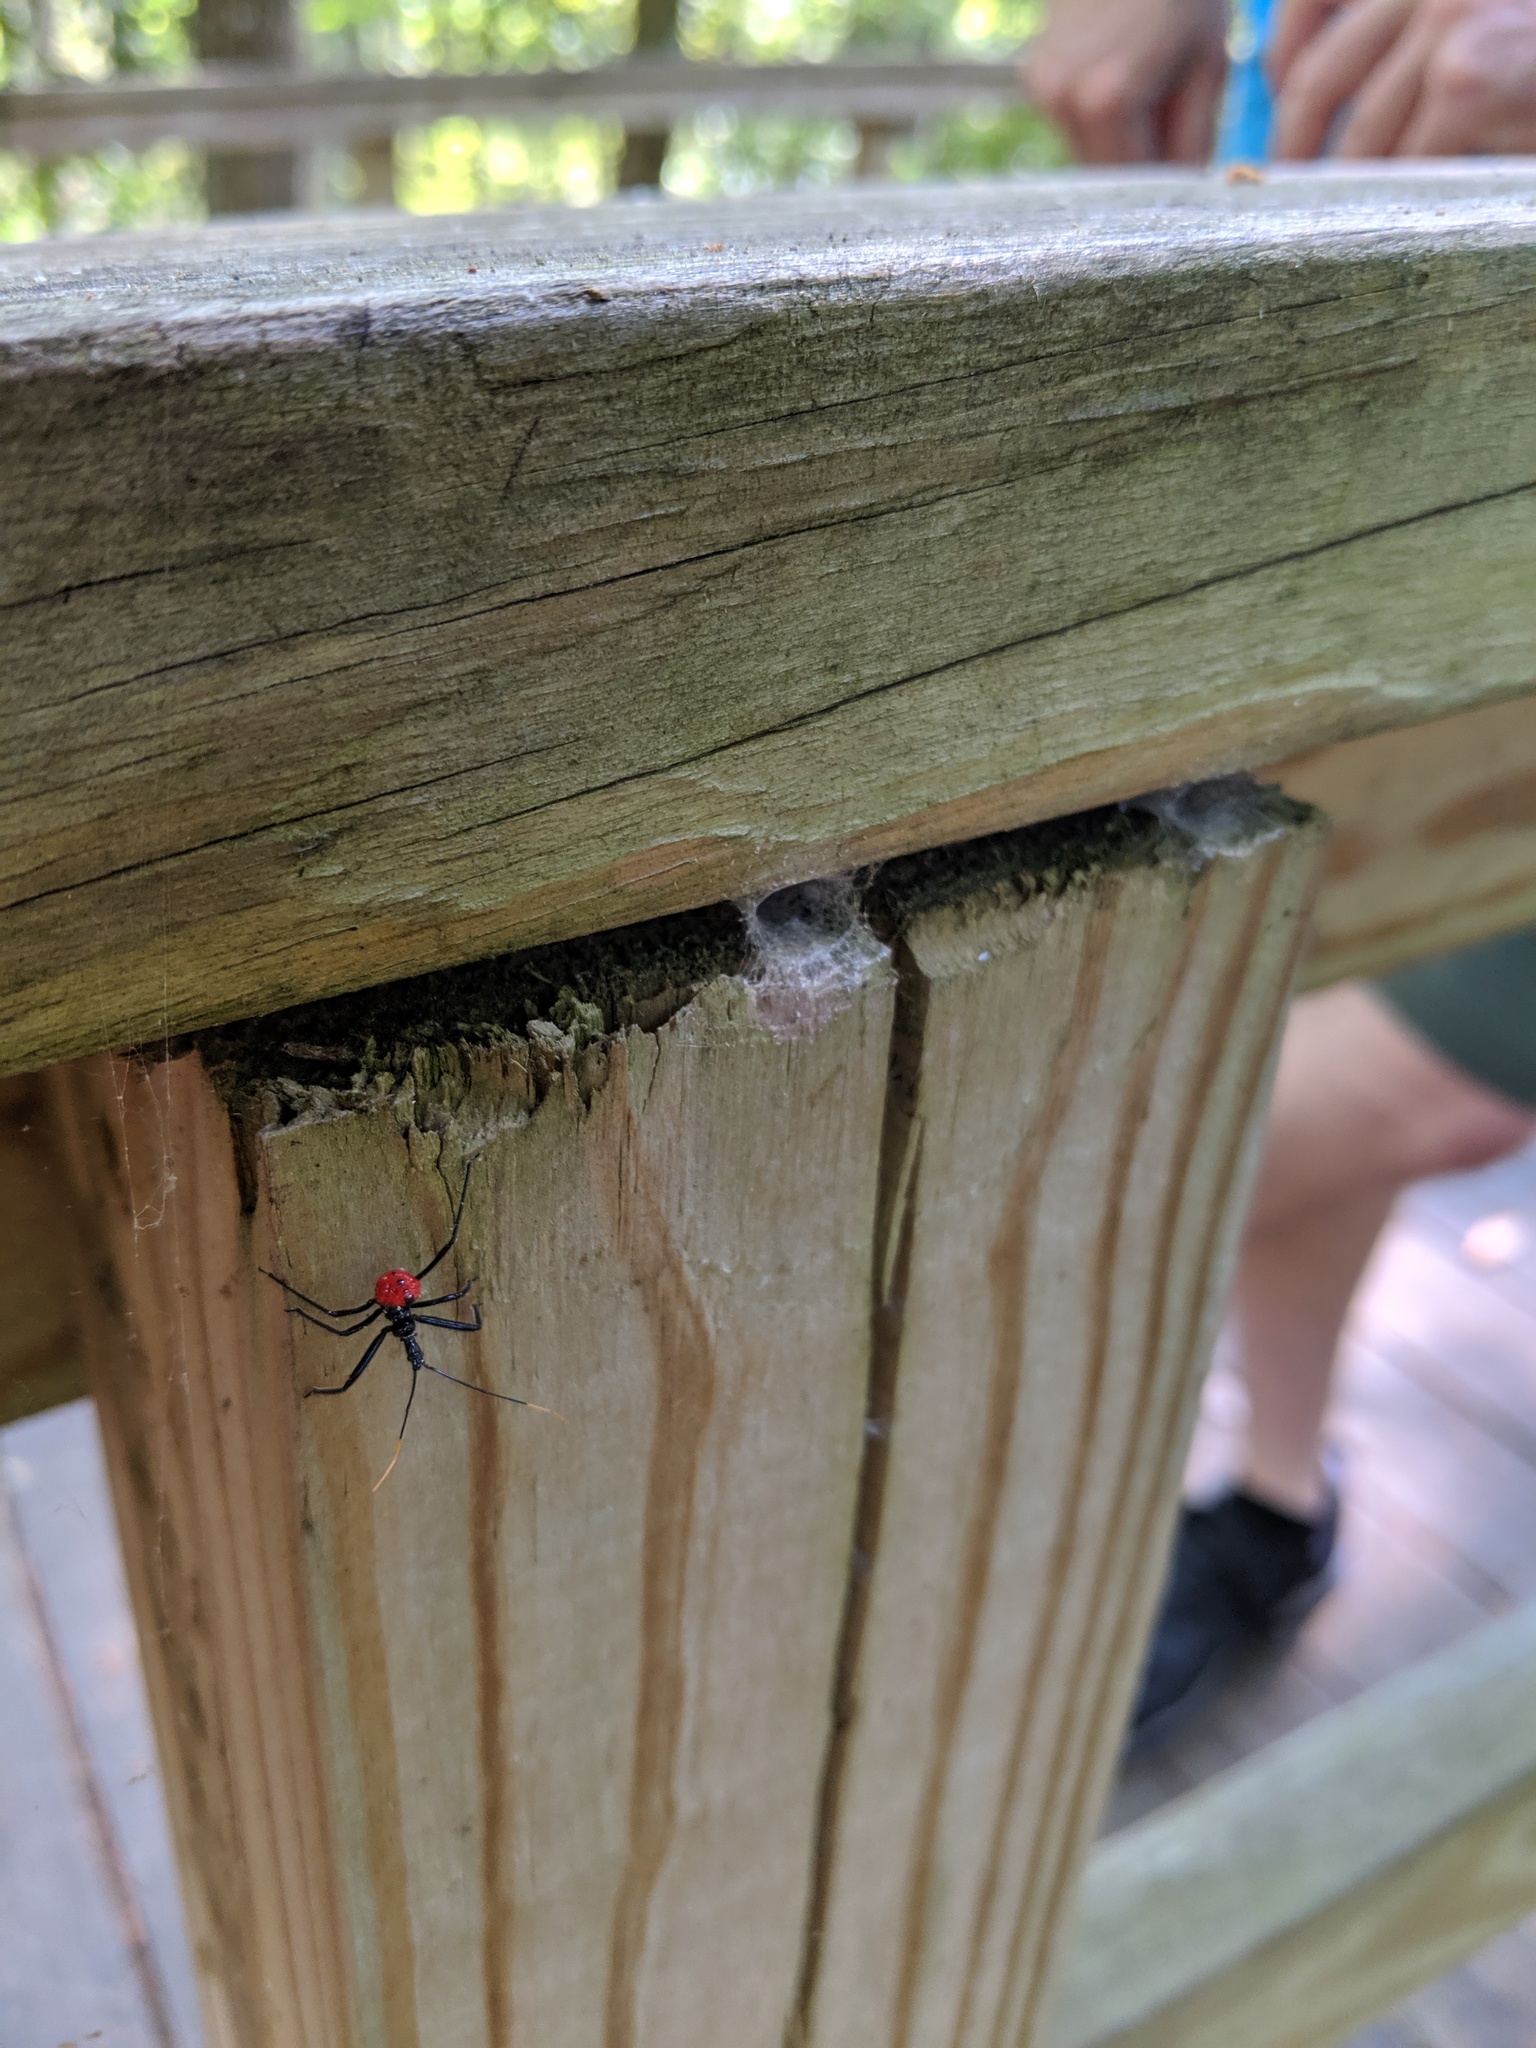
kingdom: Animalia
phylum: Arthropoda
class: Insecta
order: Hemiptera
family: Reduviidae
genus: Arilus
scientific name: Arilus cristatus
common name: North american wheel bug
